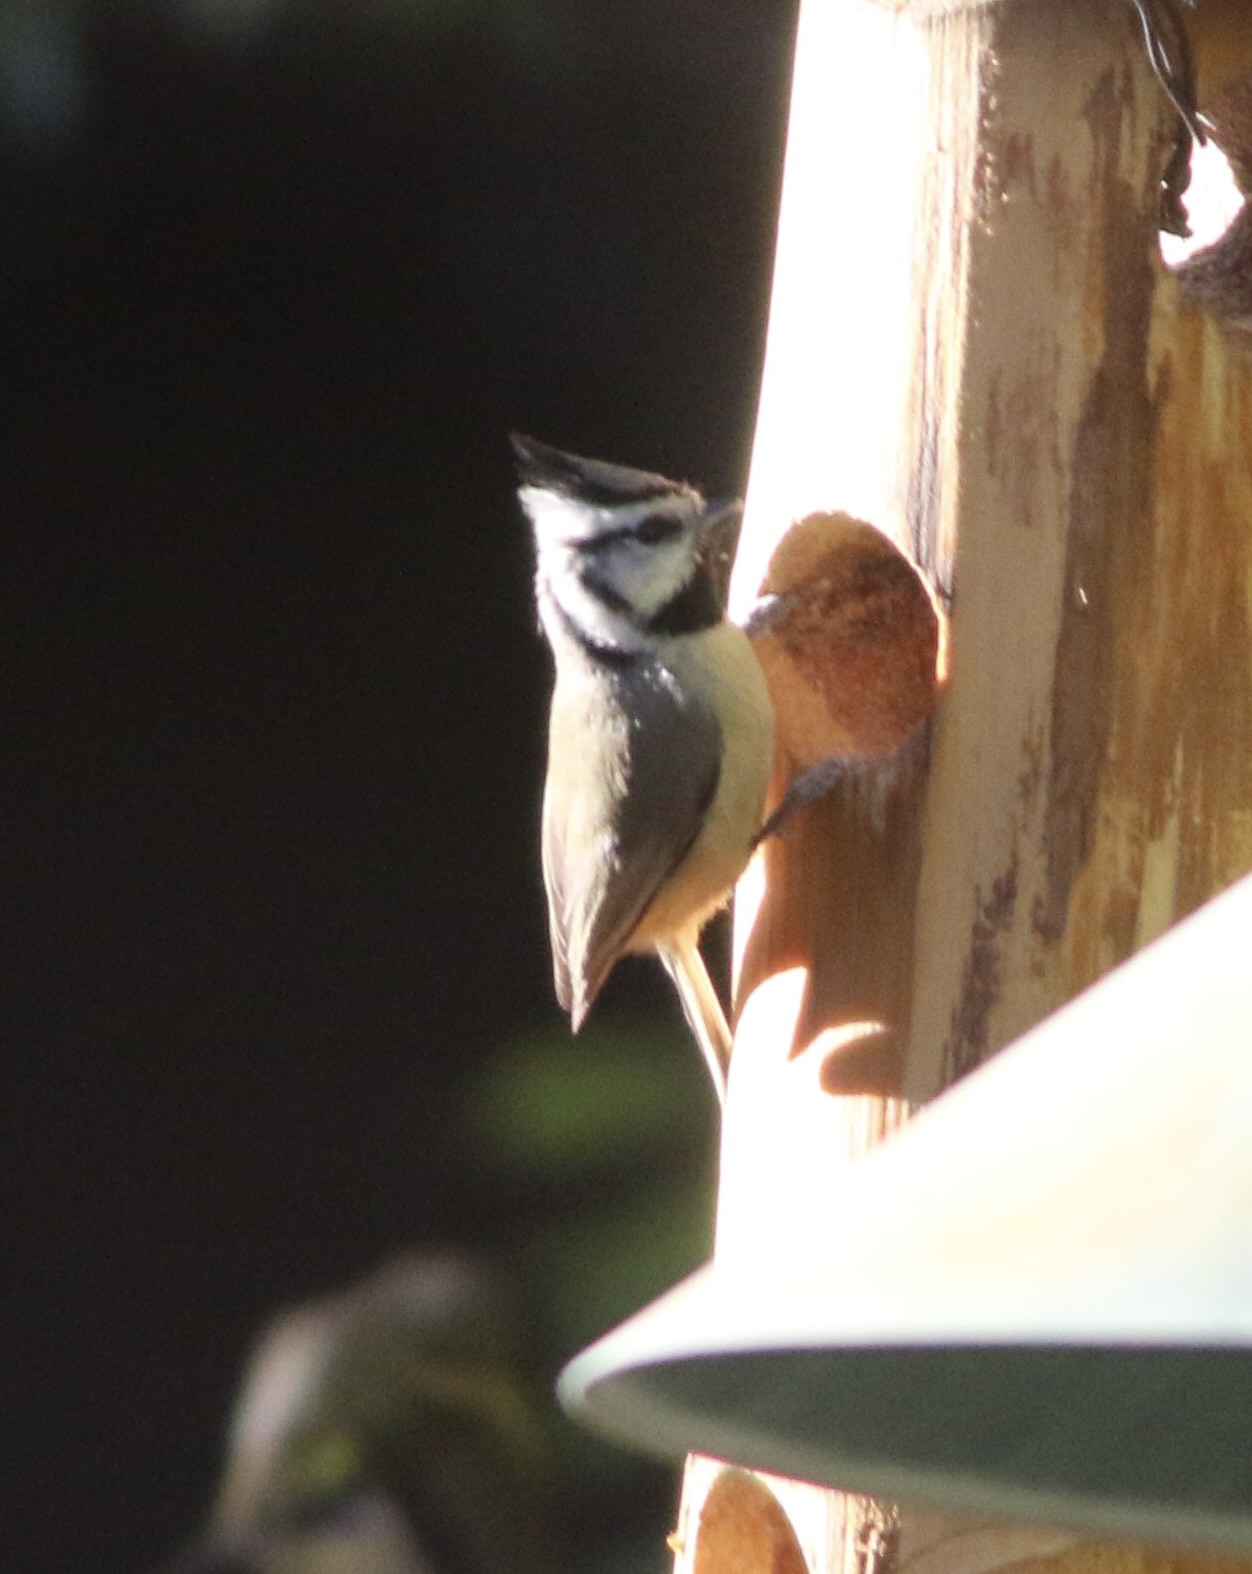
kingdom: Animalia
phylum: Chordata
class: Aves
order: Passeriformes
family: Paridae
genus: Baeolophus
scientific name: Baeolophus wollweberi
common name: Bridled titmouse
